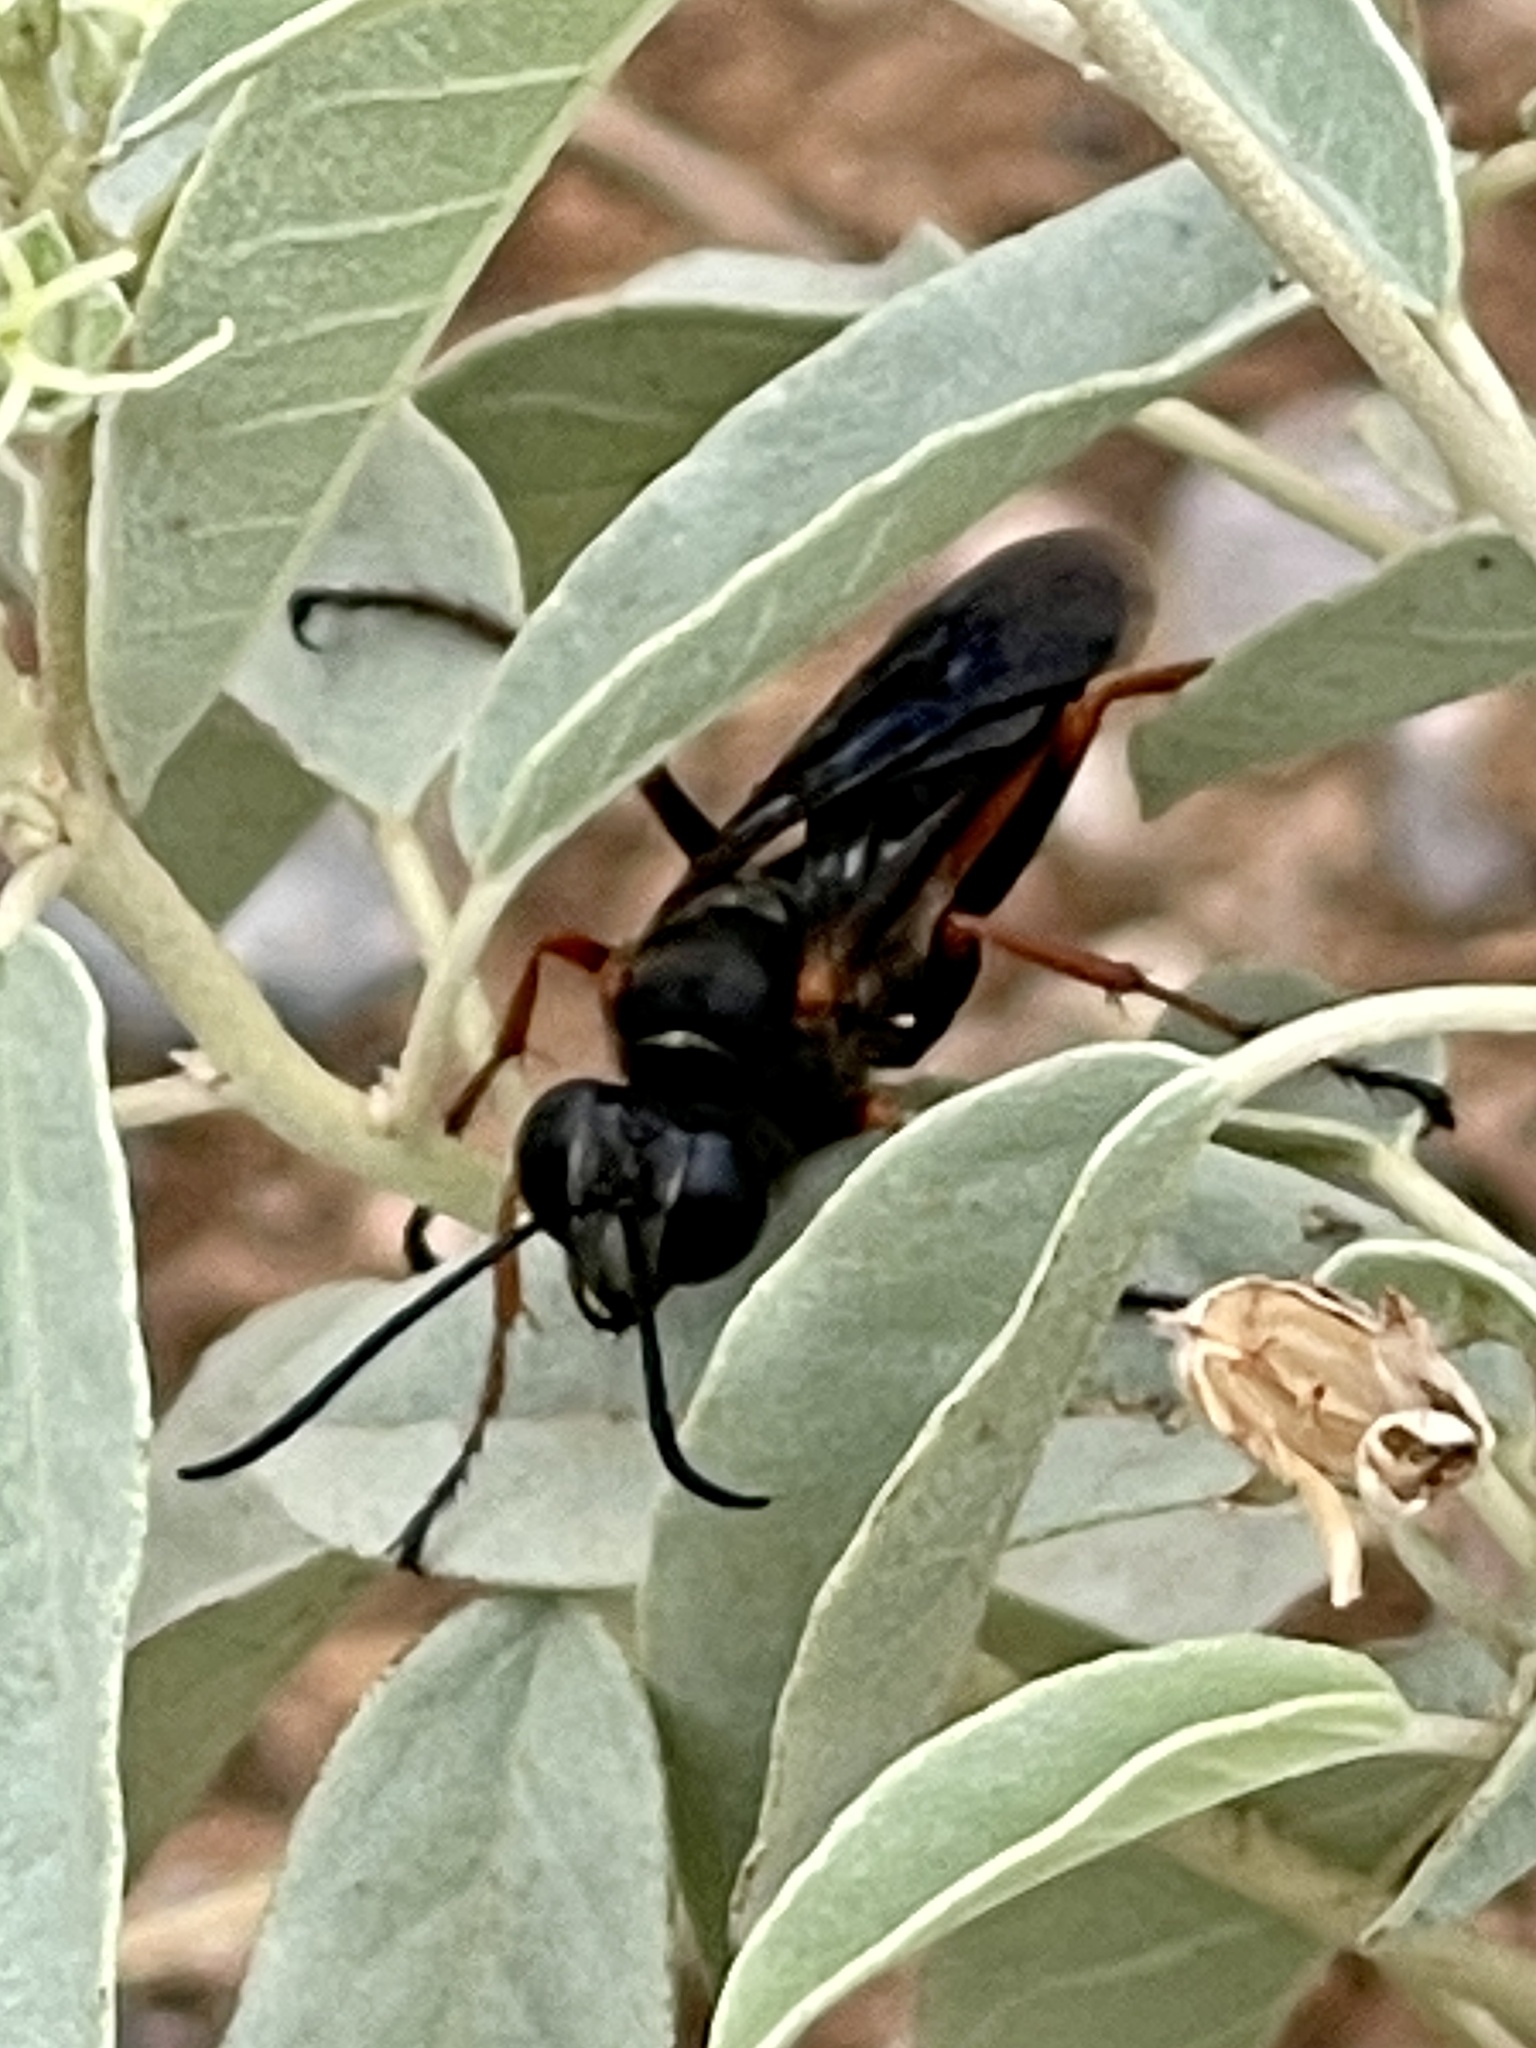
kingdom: Animalia
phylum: Arthropoda
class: Insecta
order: Hymenoptera
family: Sphecidae
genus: Sphex
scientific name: Sphex ashmeadi
